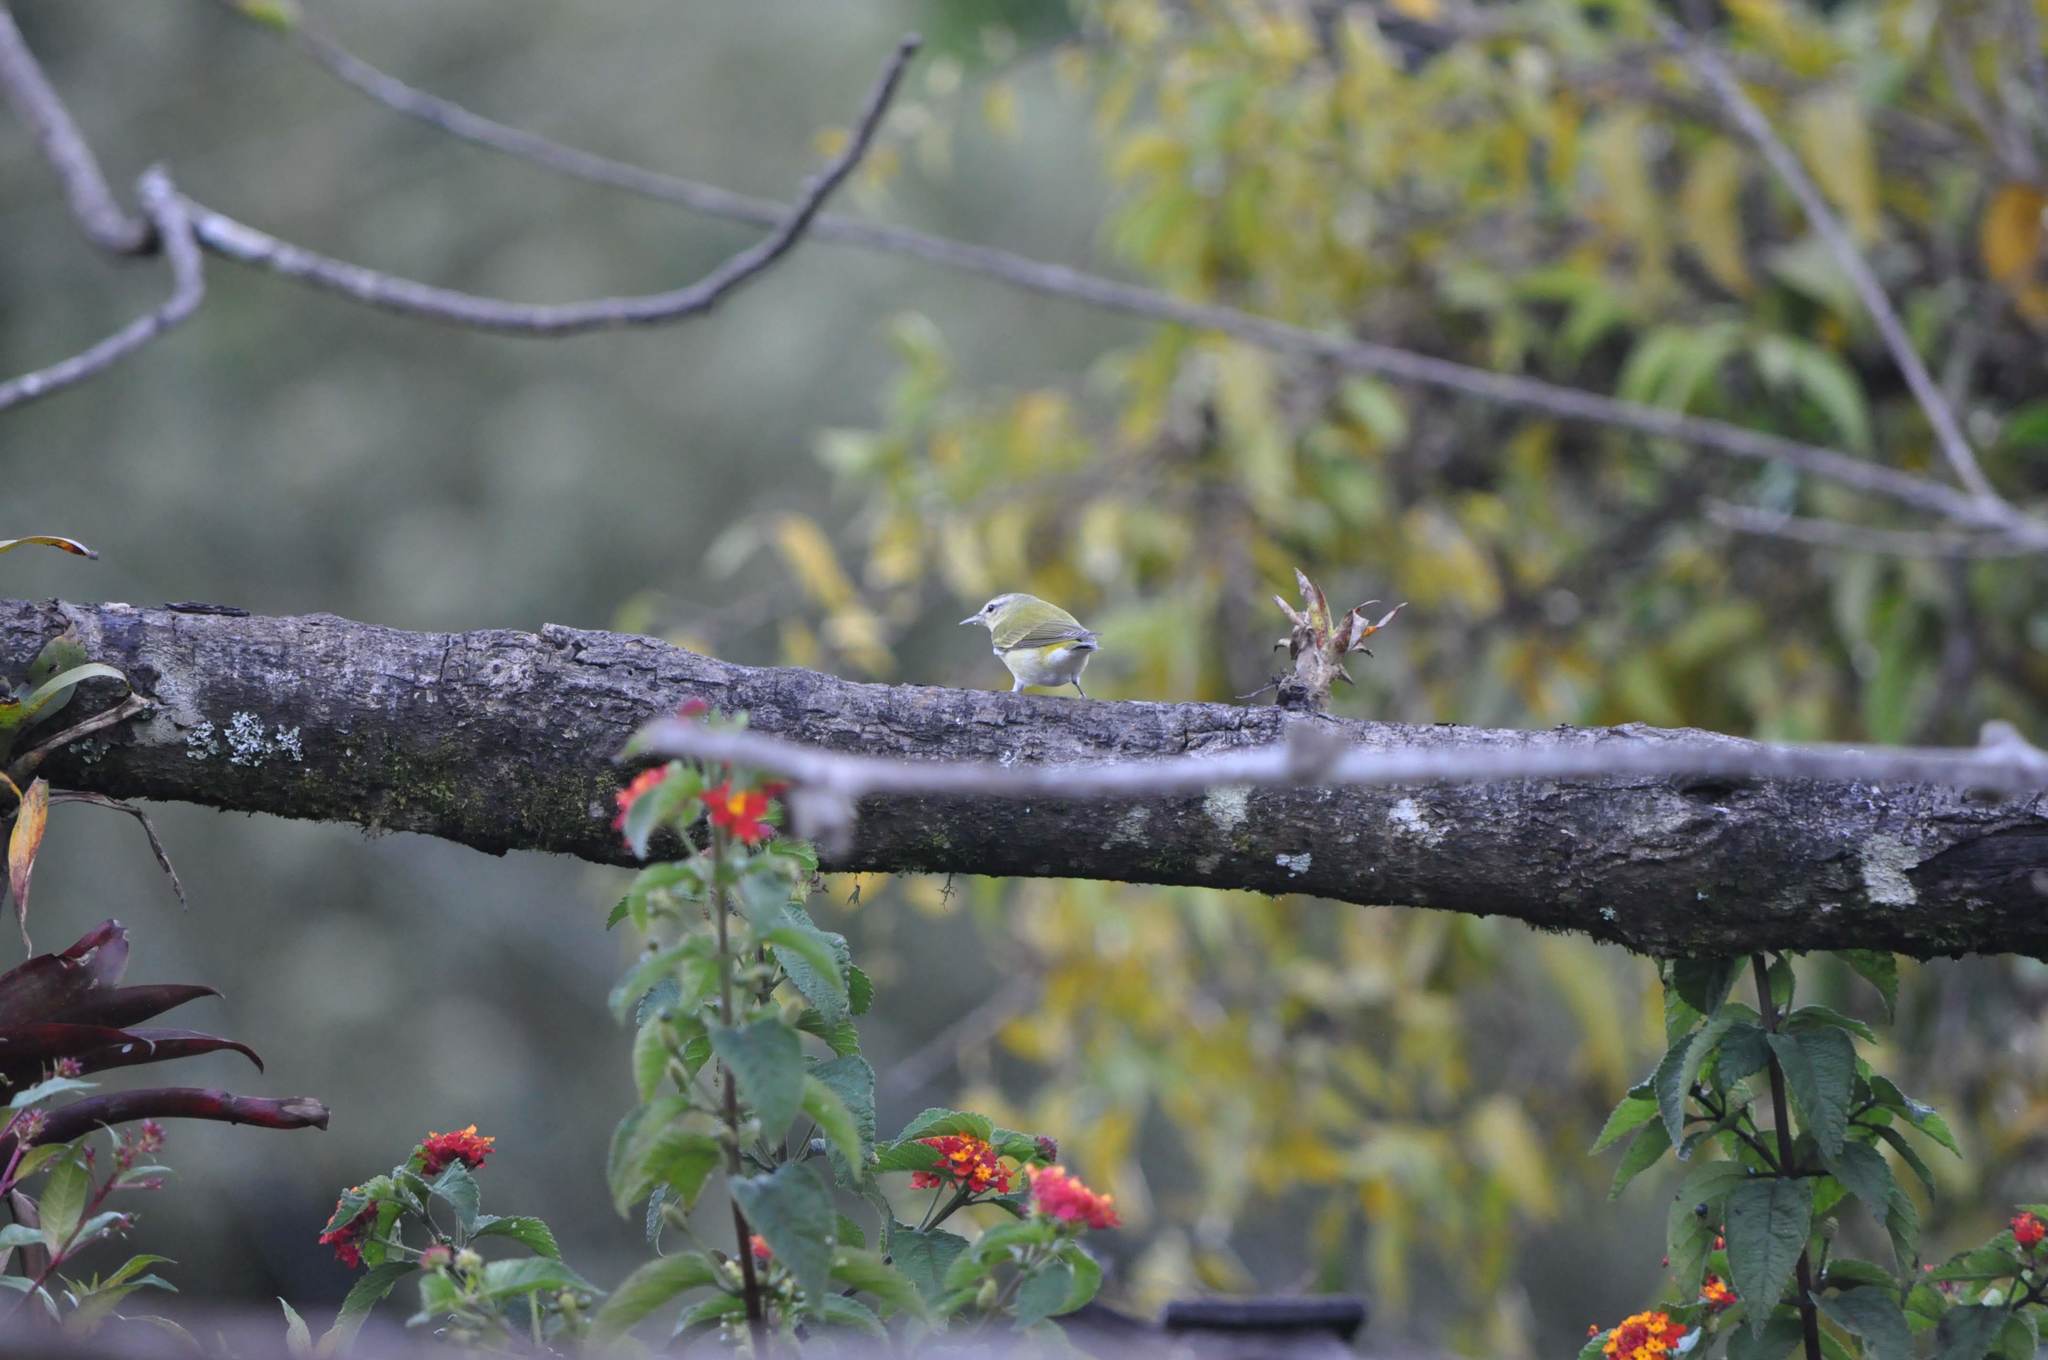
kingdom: Animalia
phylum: Chordata
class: Aves
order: Passeriformes
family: Parulidae
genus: Leiothlypis
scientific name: Leiothlypis peregrina
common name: Tennessee warbler
